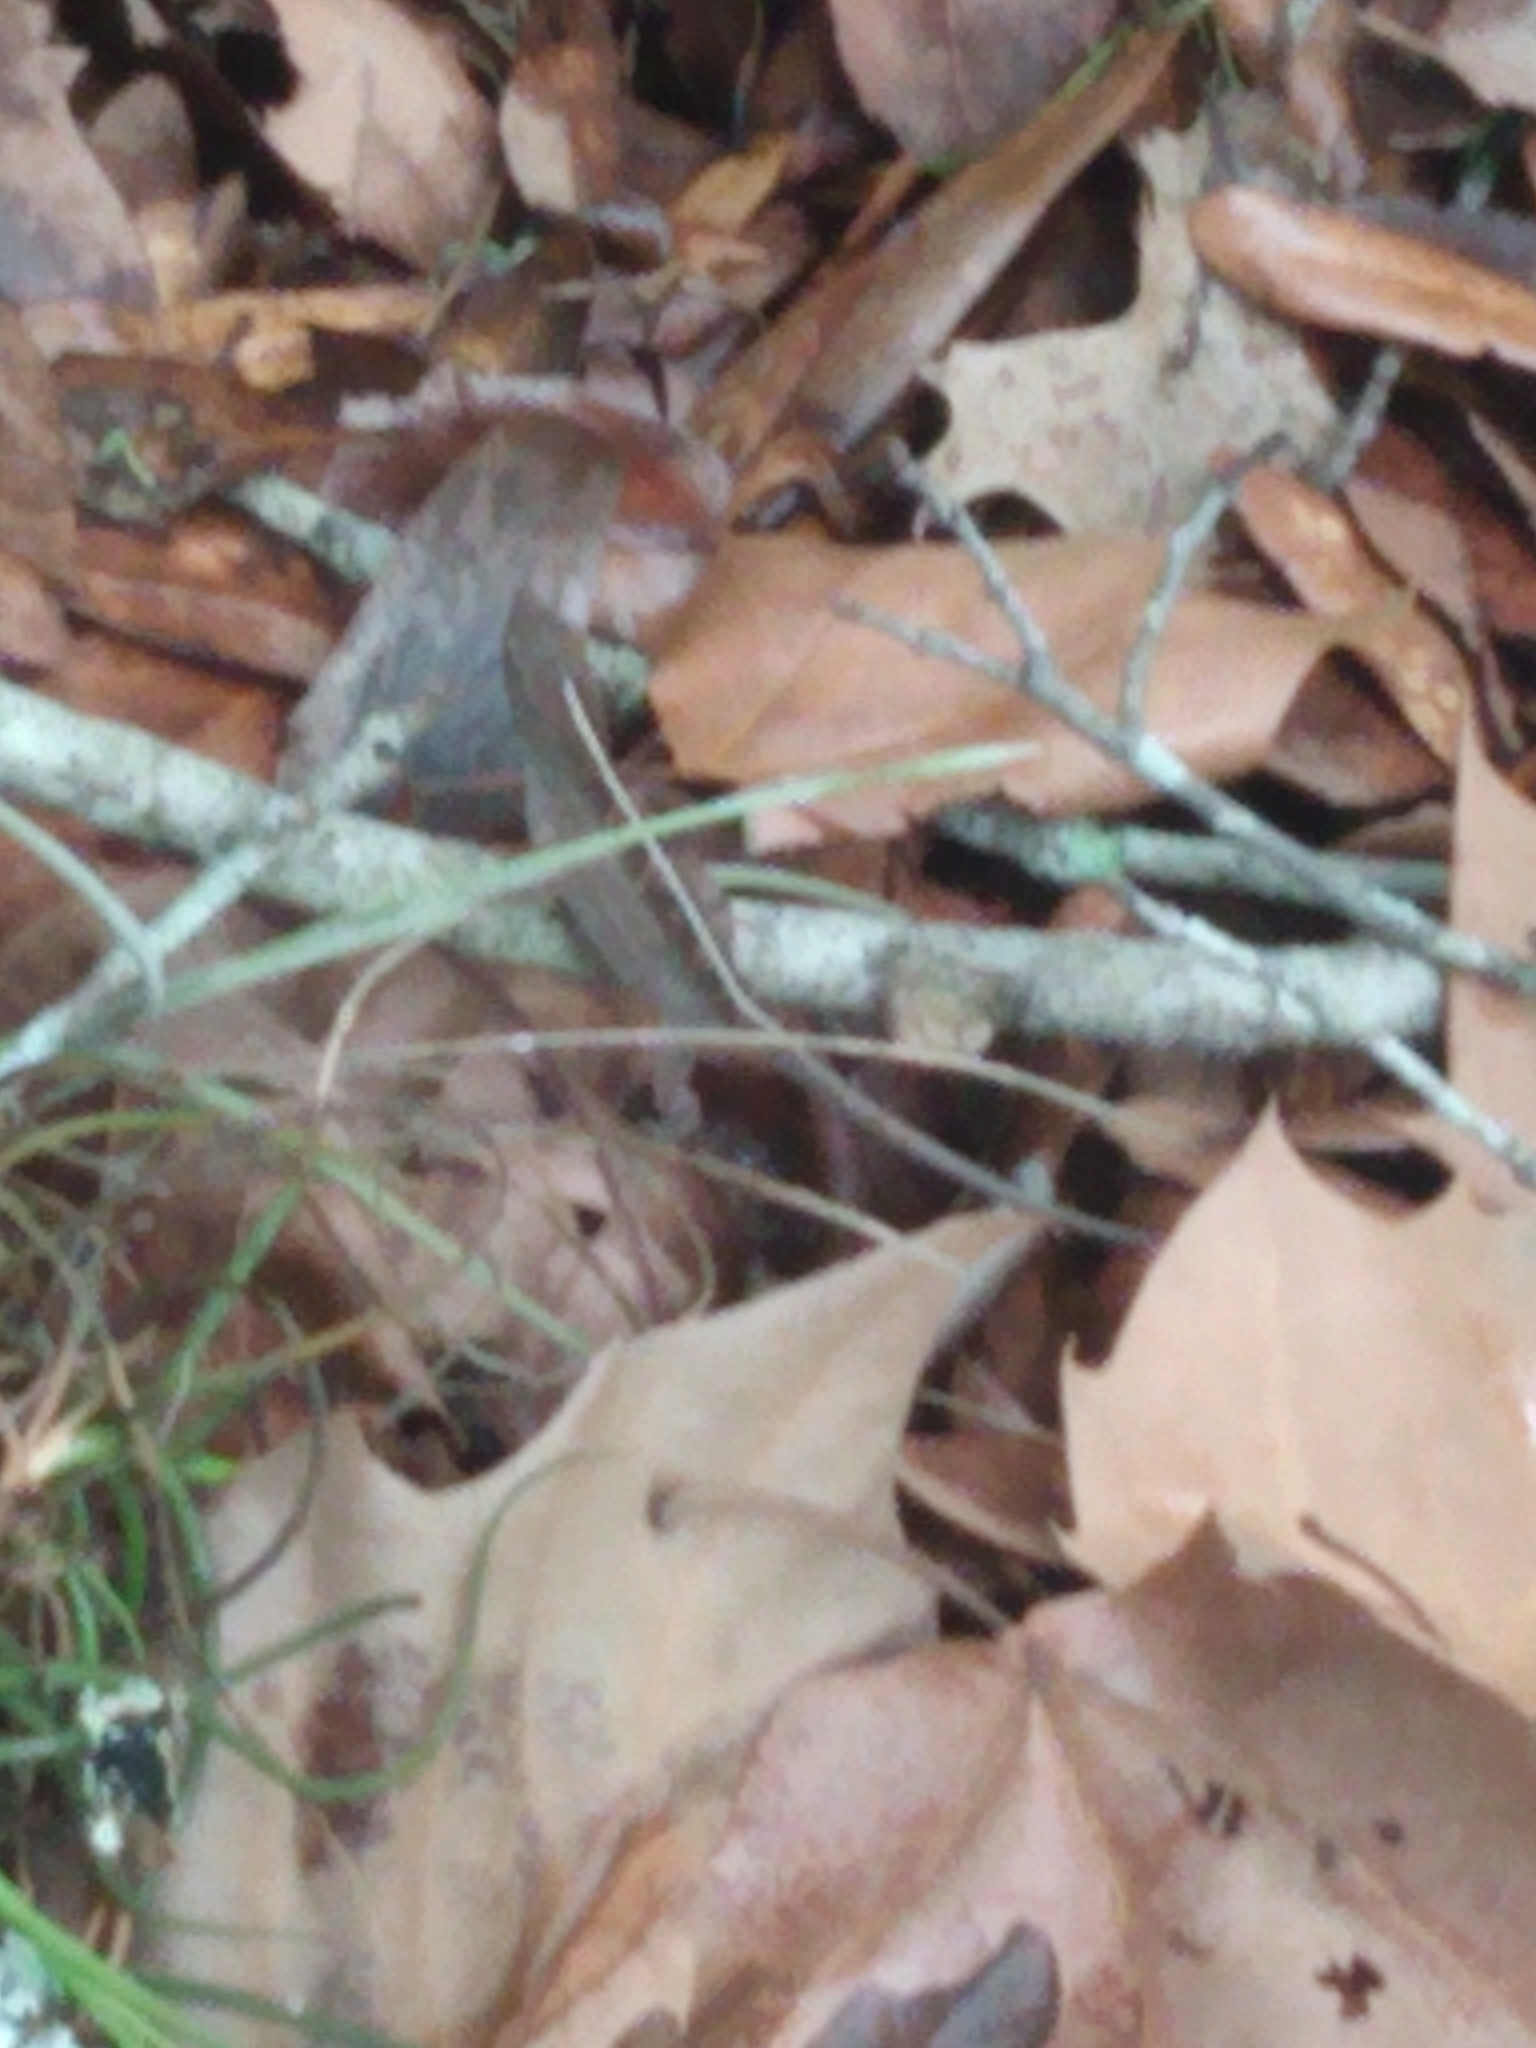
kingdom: Animalia
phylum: Chordata
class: Squamata
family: Dactyloidae
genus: Anolis
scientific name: Anolis sagrei
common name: Brown anole
